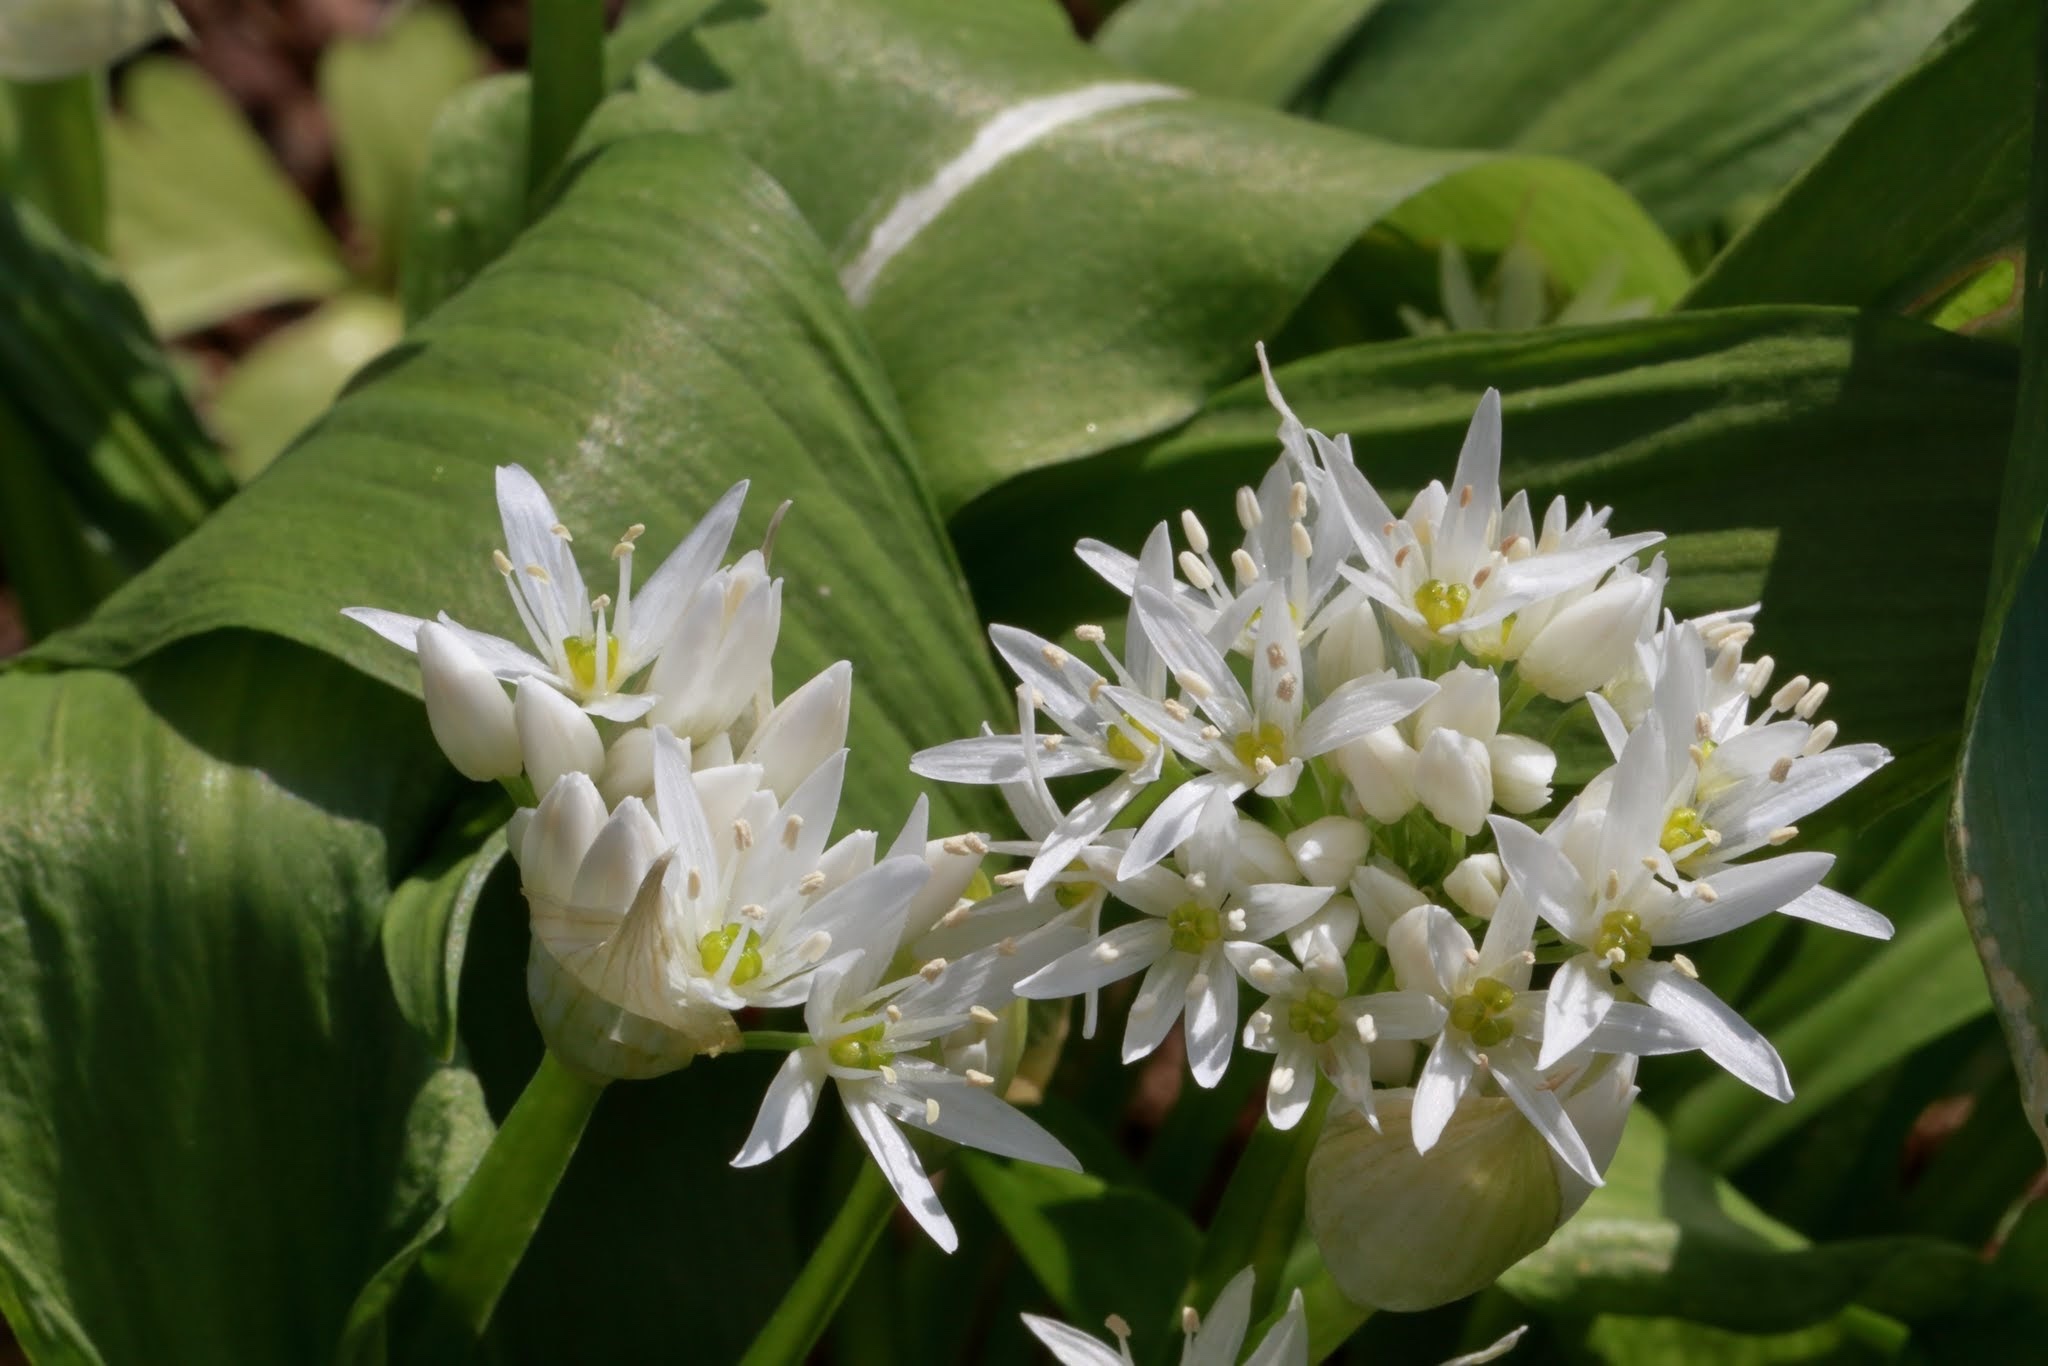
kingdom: Plantae
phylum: Tracheophyta
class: Liliopsida
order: Asparagales
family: Amaryllidaceae
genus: Allium
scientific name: Allium ursinum
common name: Ramsons
